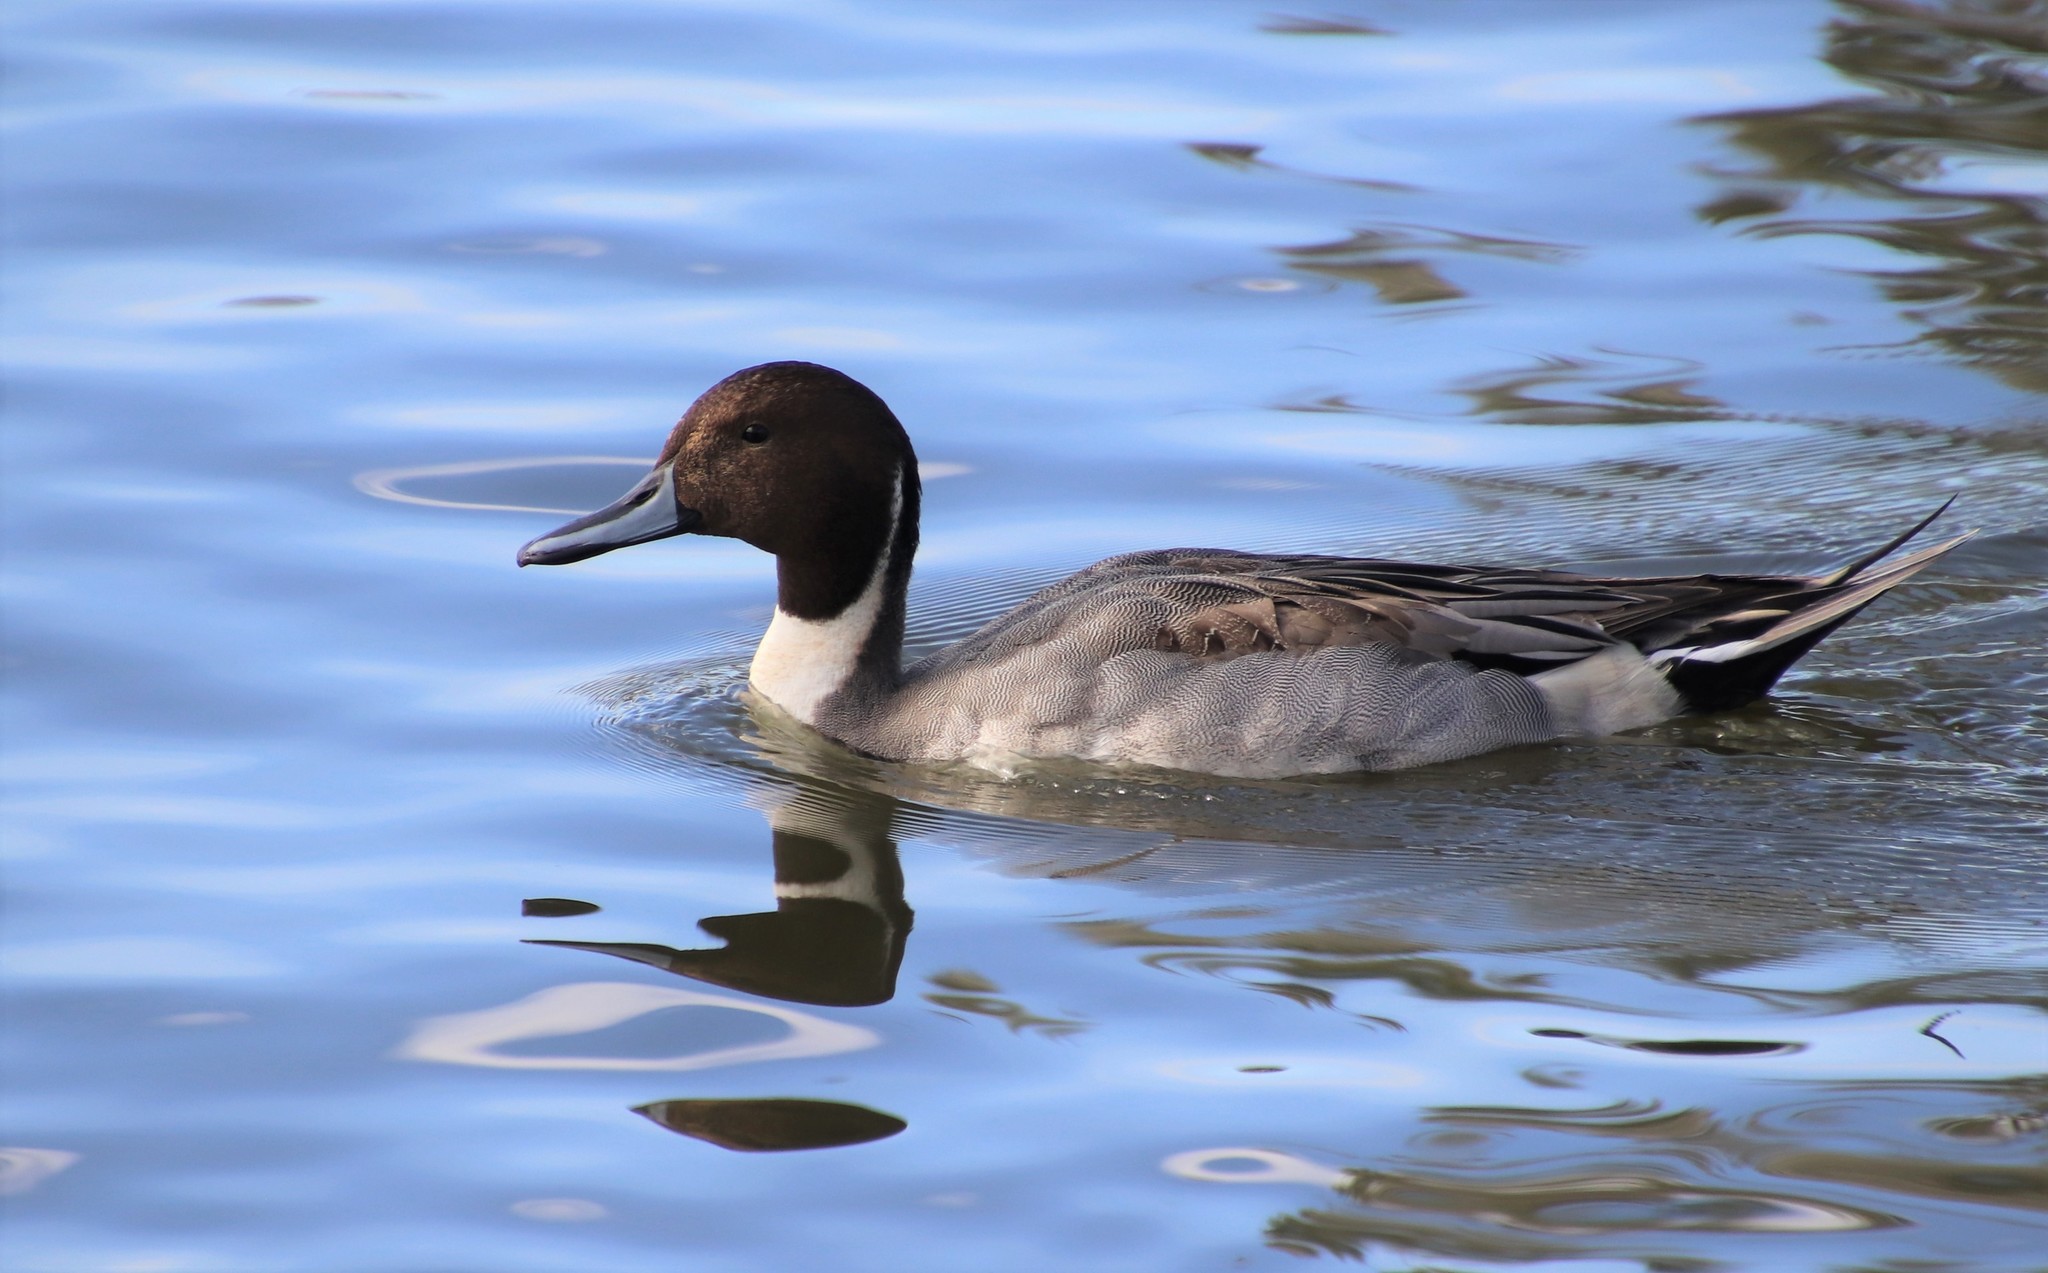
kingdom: Animalia
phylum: Chordata
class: Aves
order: Anseriformes
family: Anatidae
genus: Anas
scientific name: Anas acuta
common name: Northern pintail
